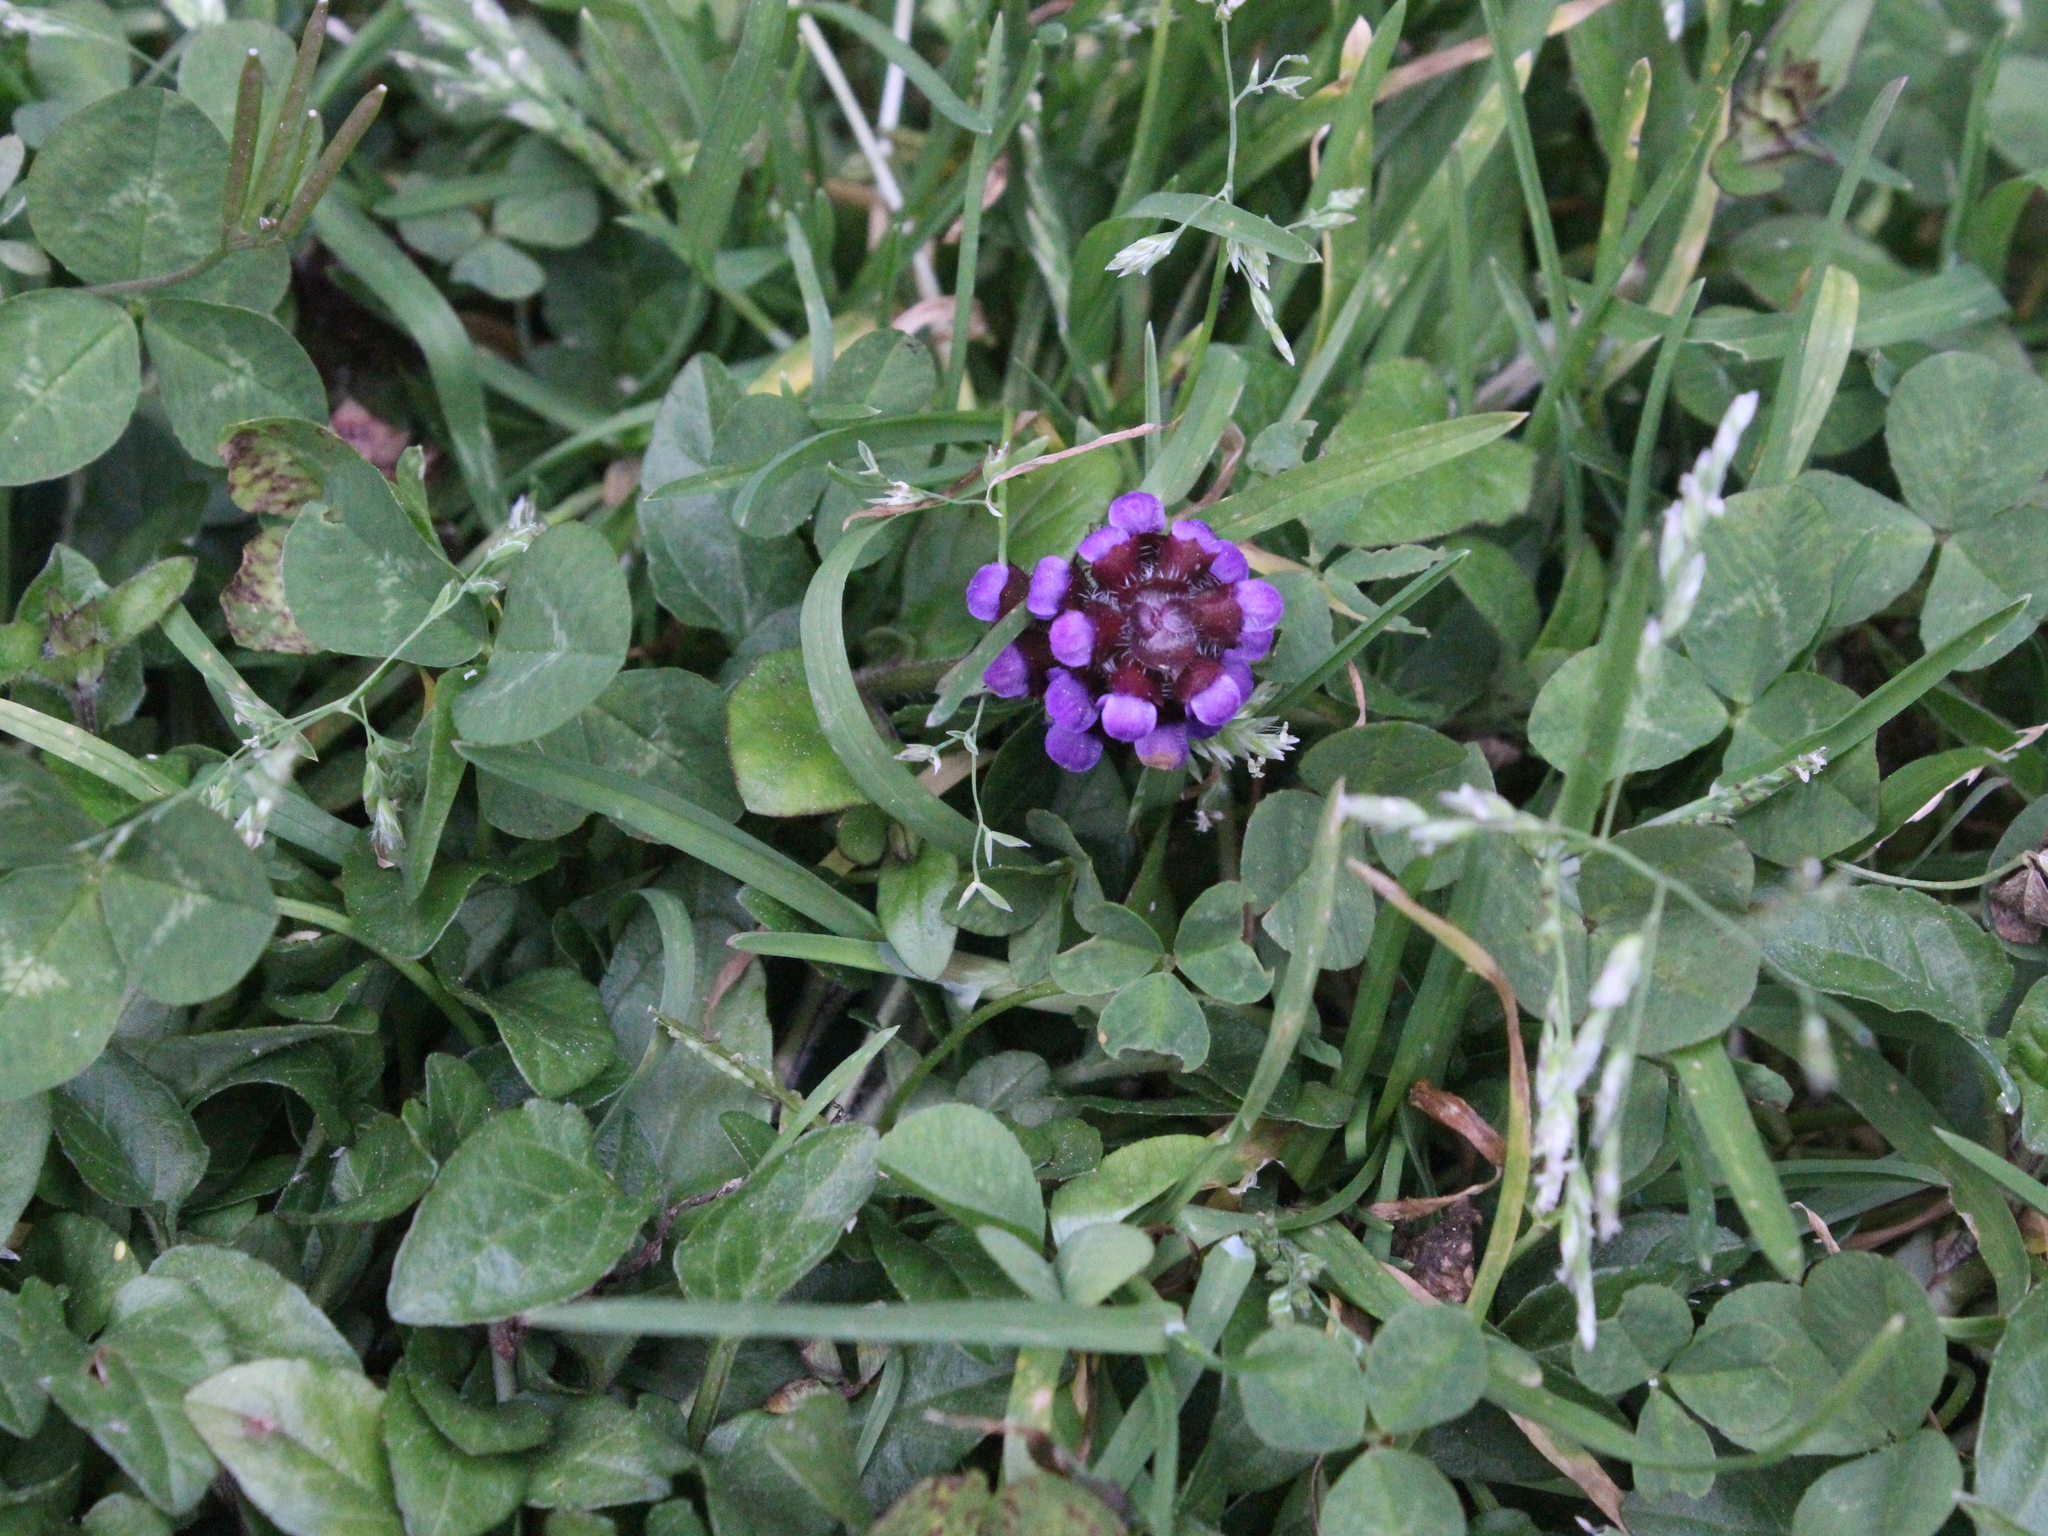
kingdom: Plantae
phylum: Tracheophyta
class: Magnoliopsida
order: Lamiales
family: Lamiaceae
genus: Prunella
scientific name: Prunella vulgaris
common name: Heal-all
